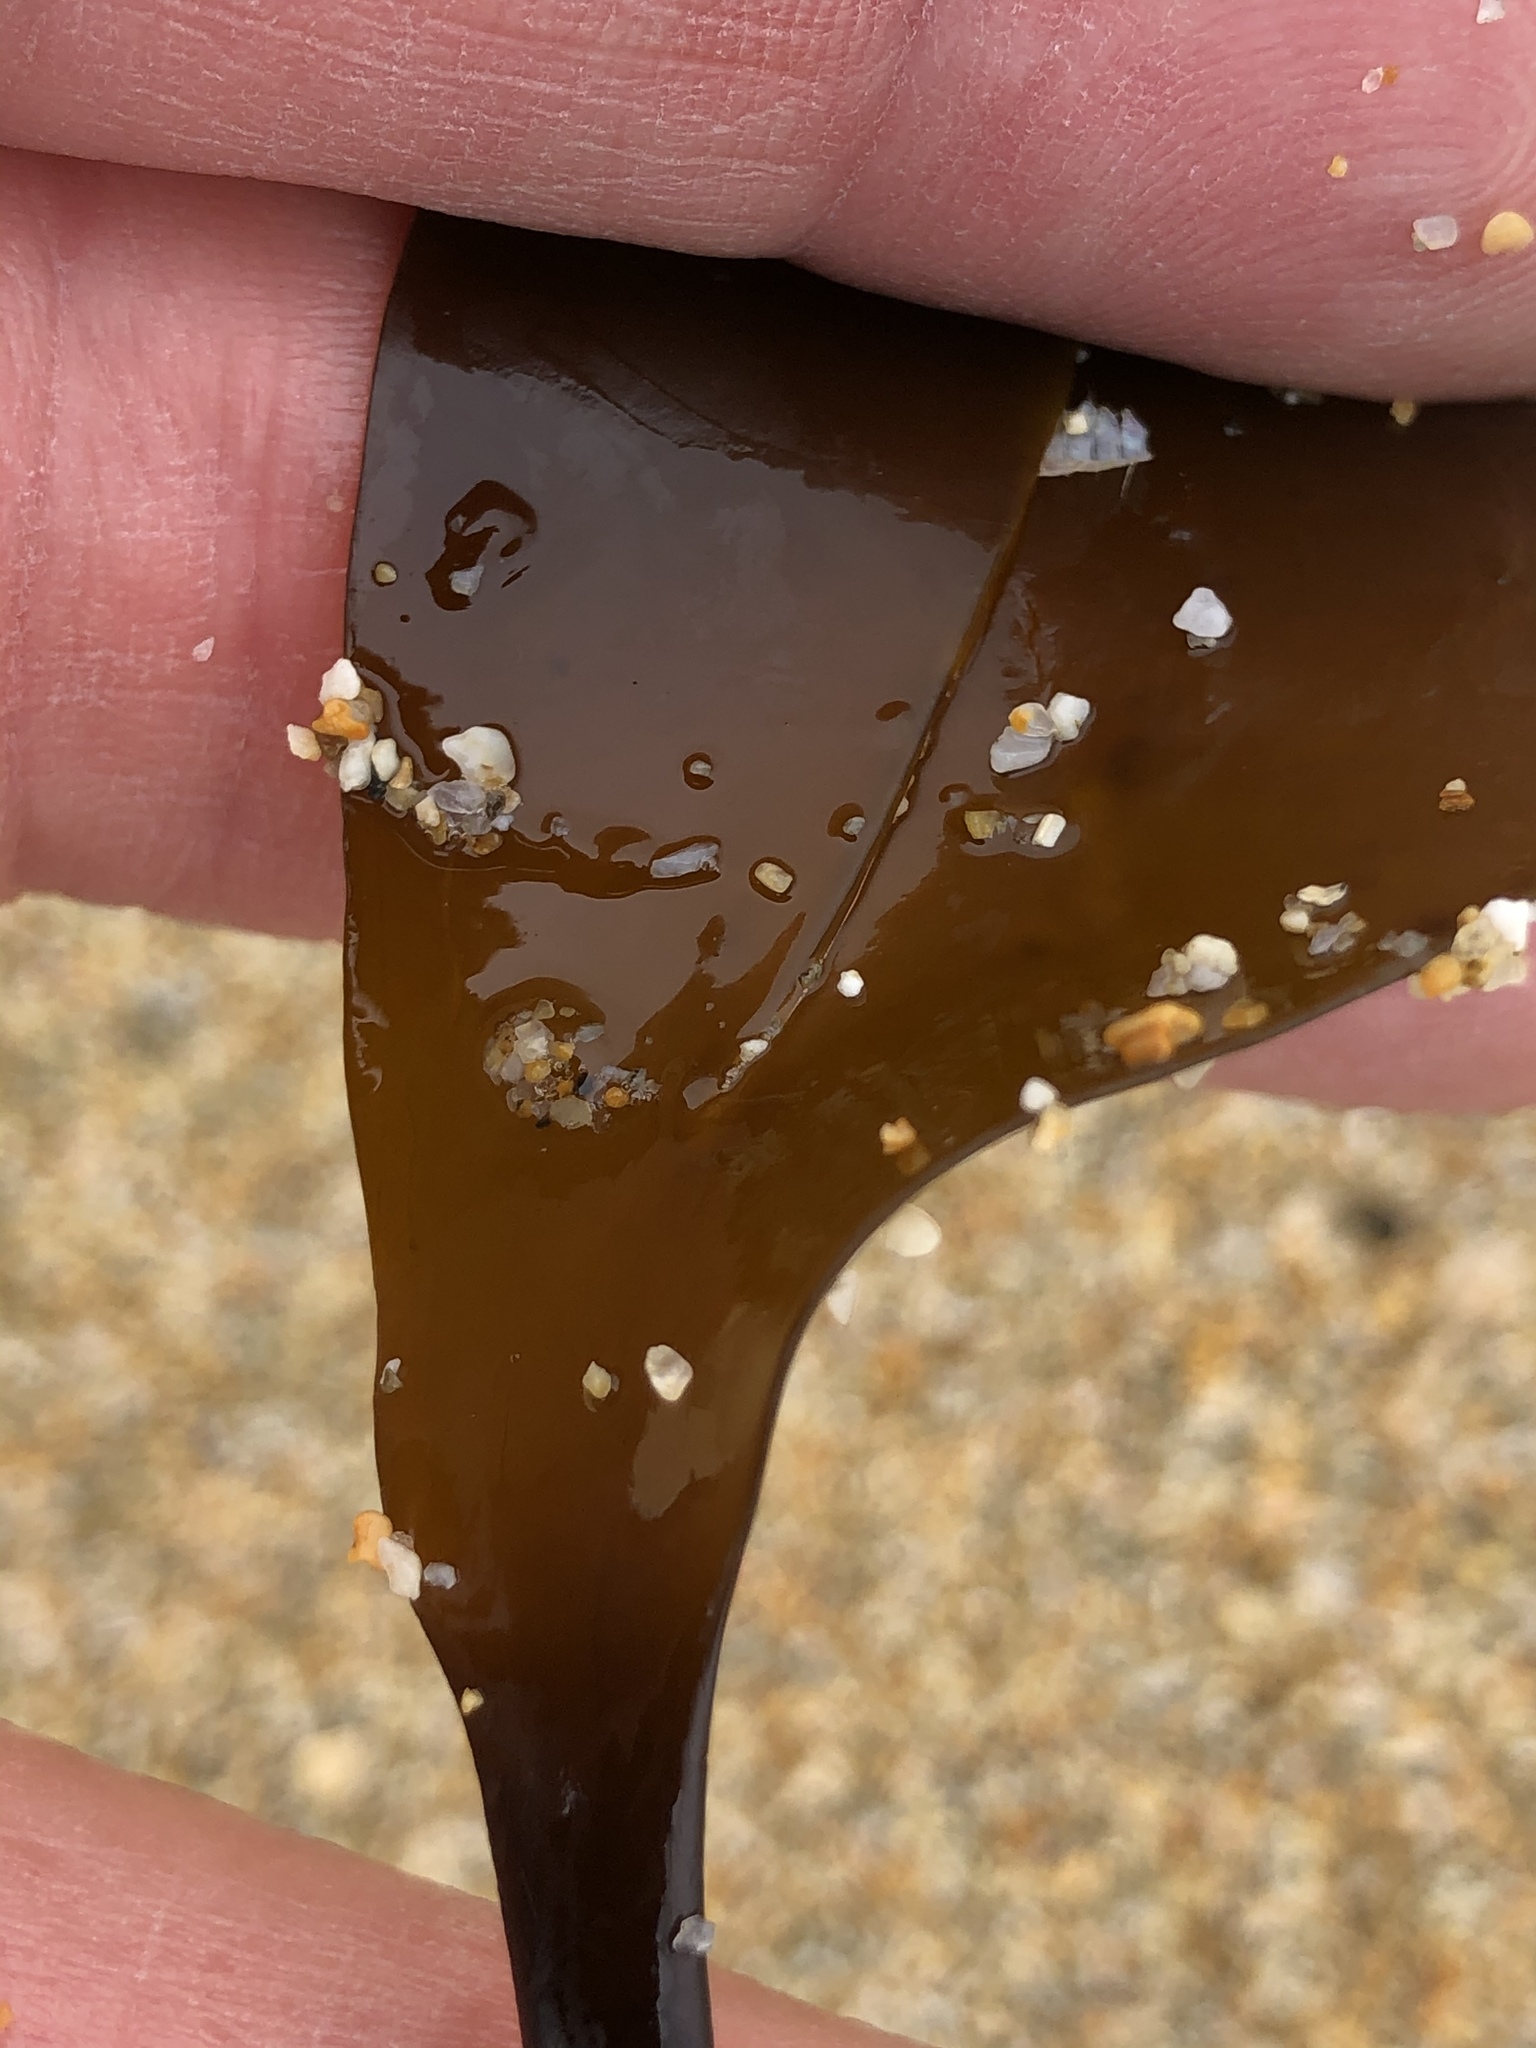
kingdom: Chromista
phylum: Ochrophyta
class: Phaeophyceae
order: Laminariales
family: Laminariaceae
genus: Laminaria
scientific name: Laminaria setchellii
